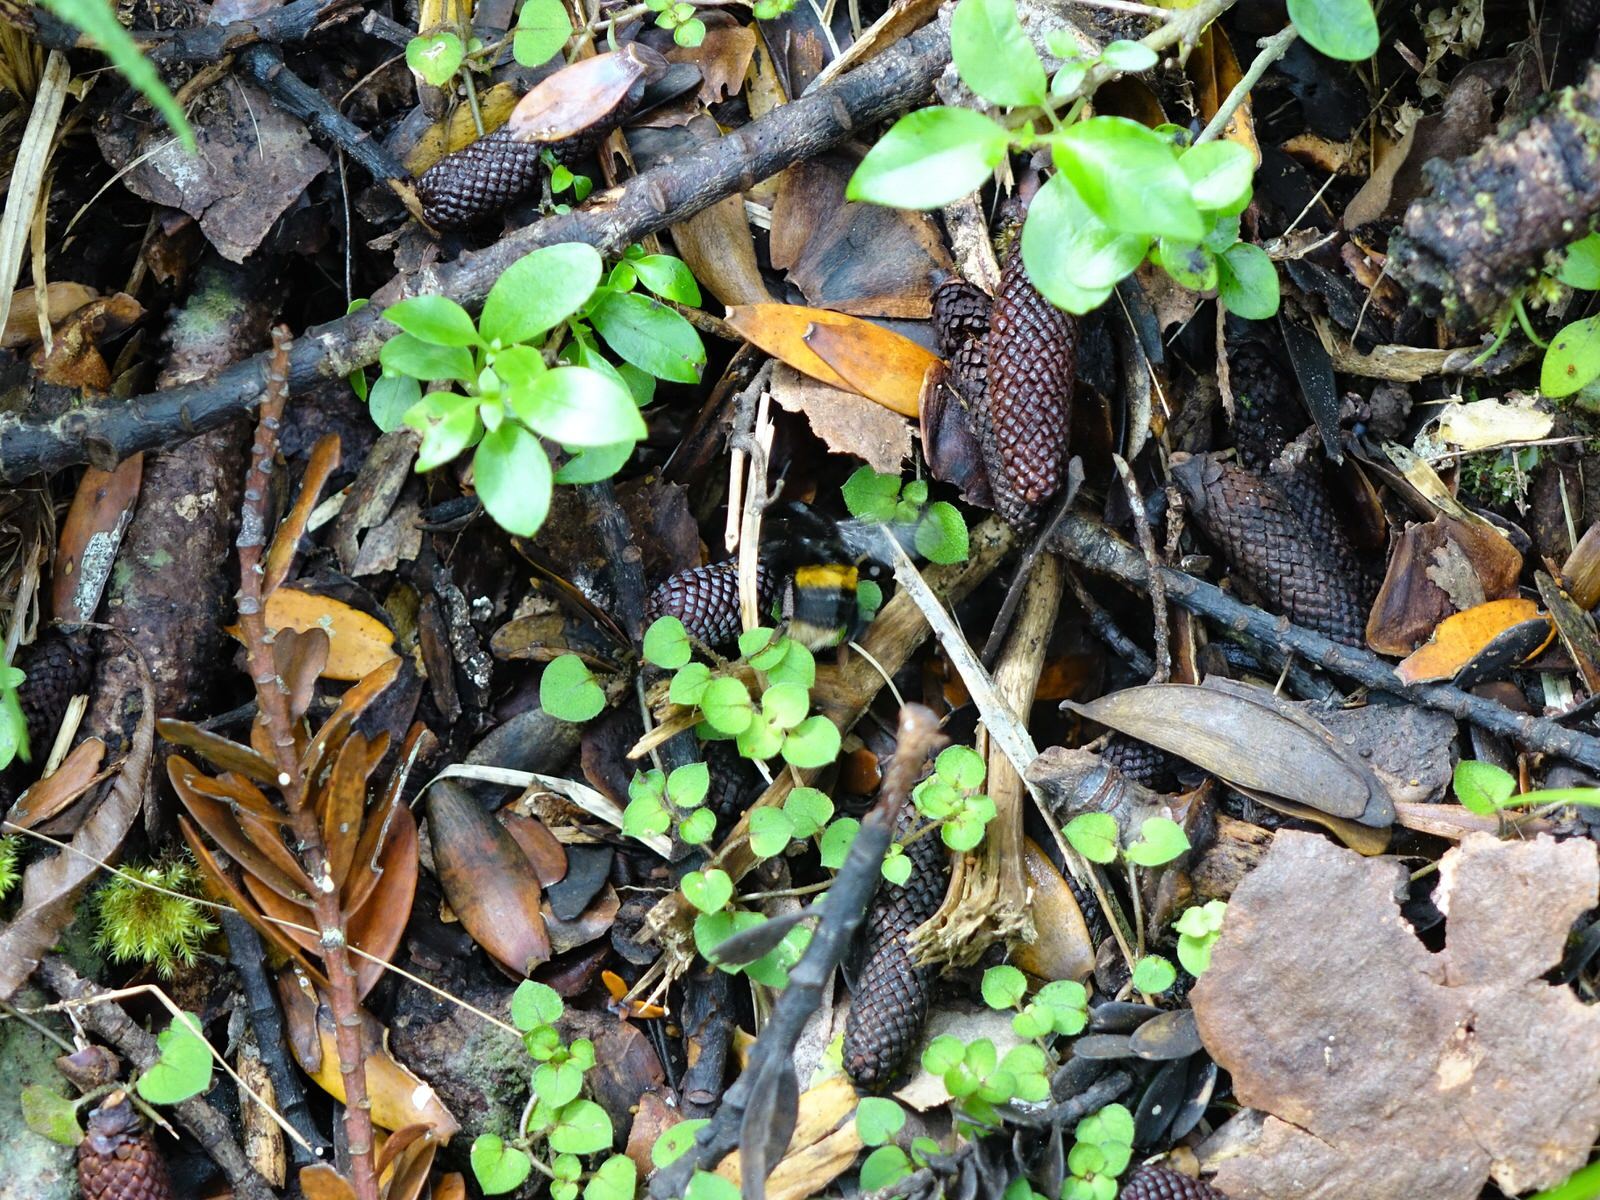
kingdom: Animalia
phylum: Arthropoda
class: Insecta
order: Hymenoptera
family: Apidae
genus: Bombus
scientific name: Bombus terrestris
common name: Buff-tailed bumblebee
